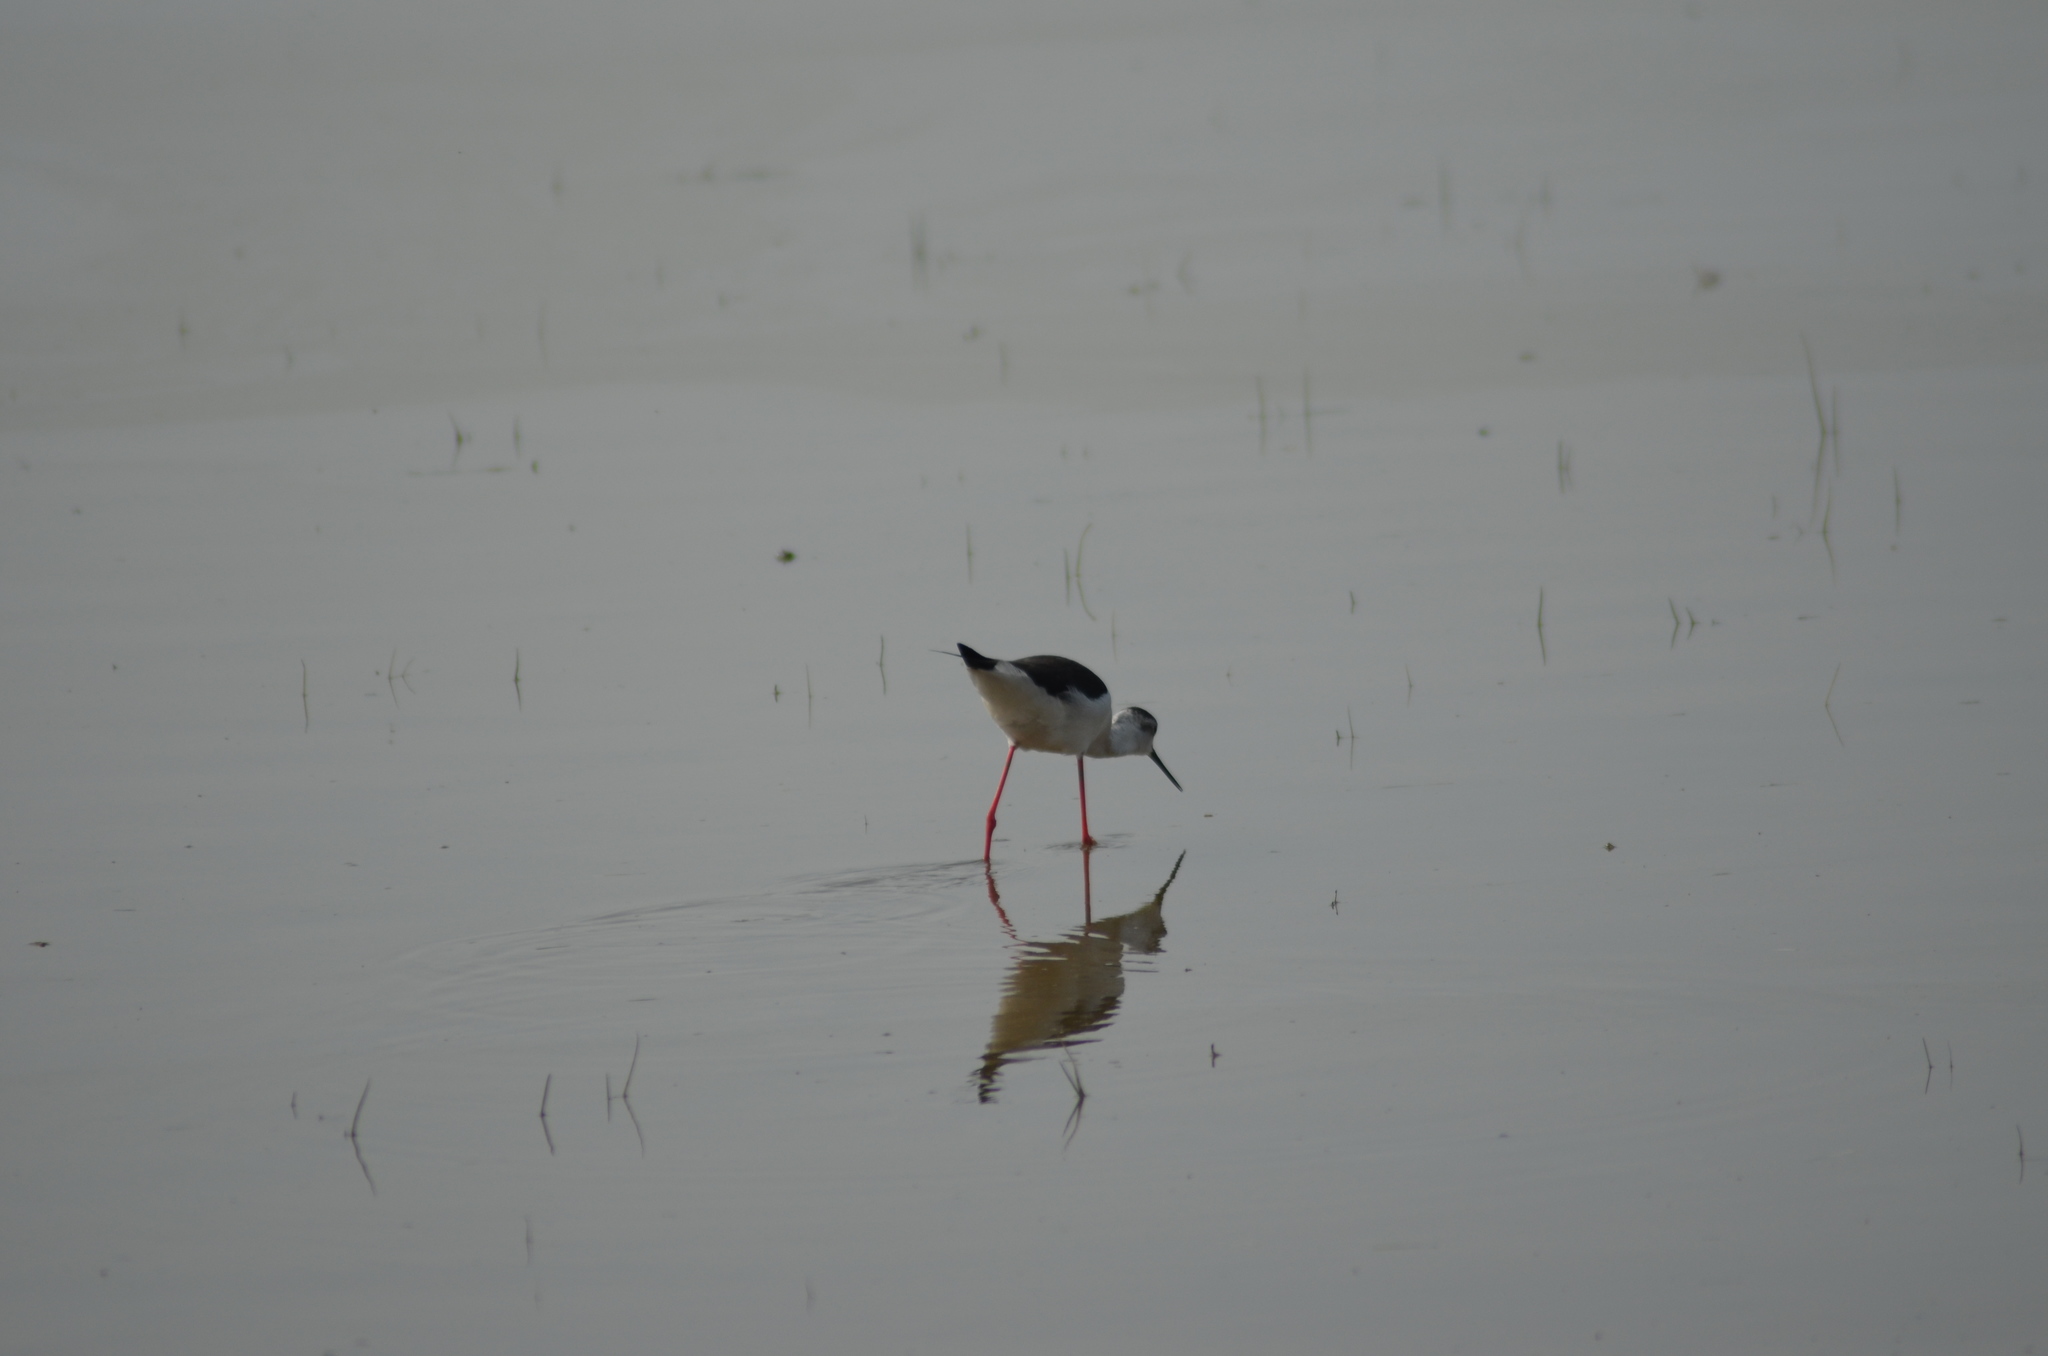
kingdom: Animalia
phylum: Chordata
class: Aves
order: Charadriiformes
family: Recurvirostridae
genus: Himantopus
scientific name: Himantopus himantopus
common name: Black-winged stilt
